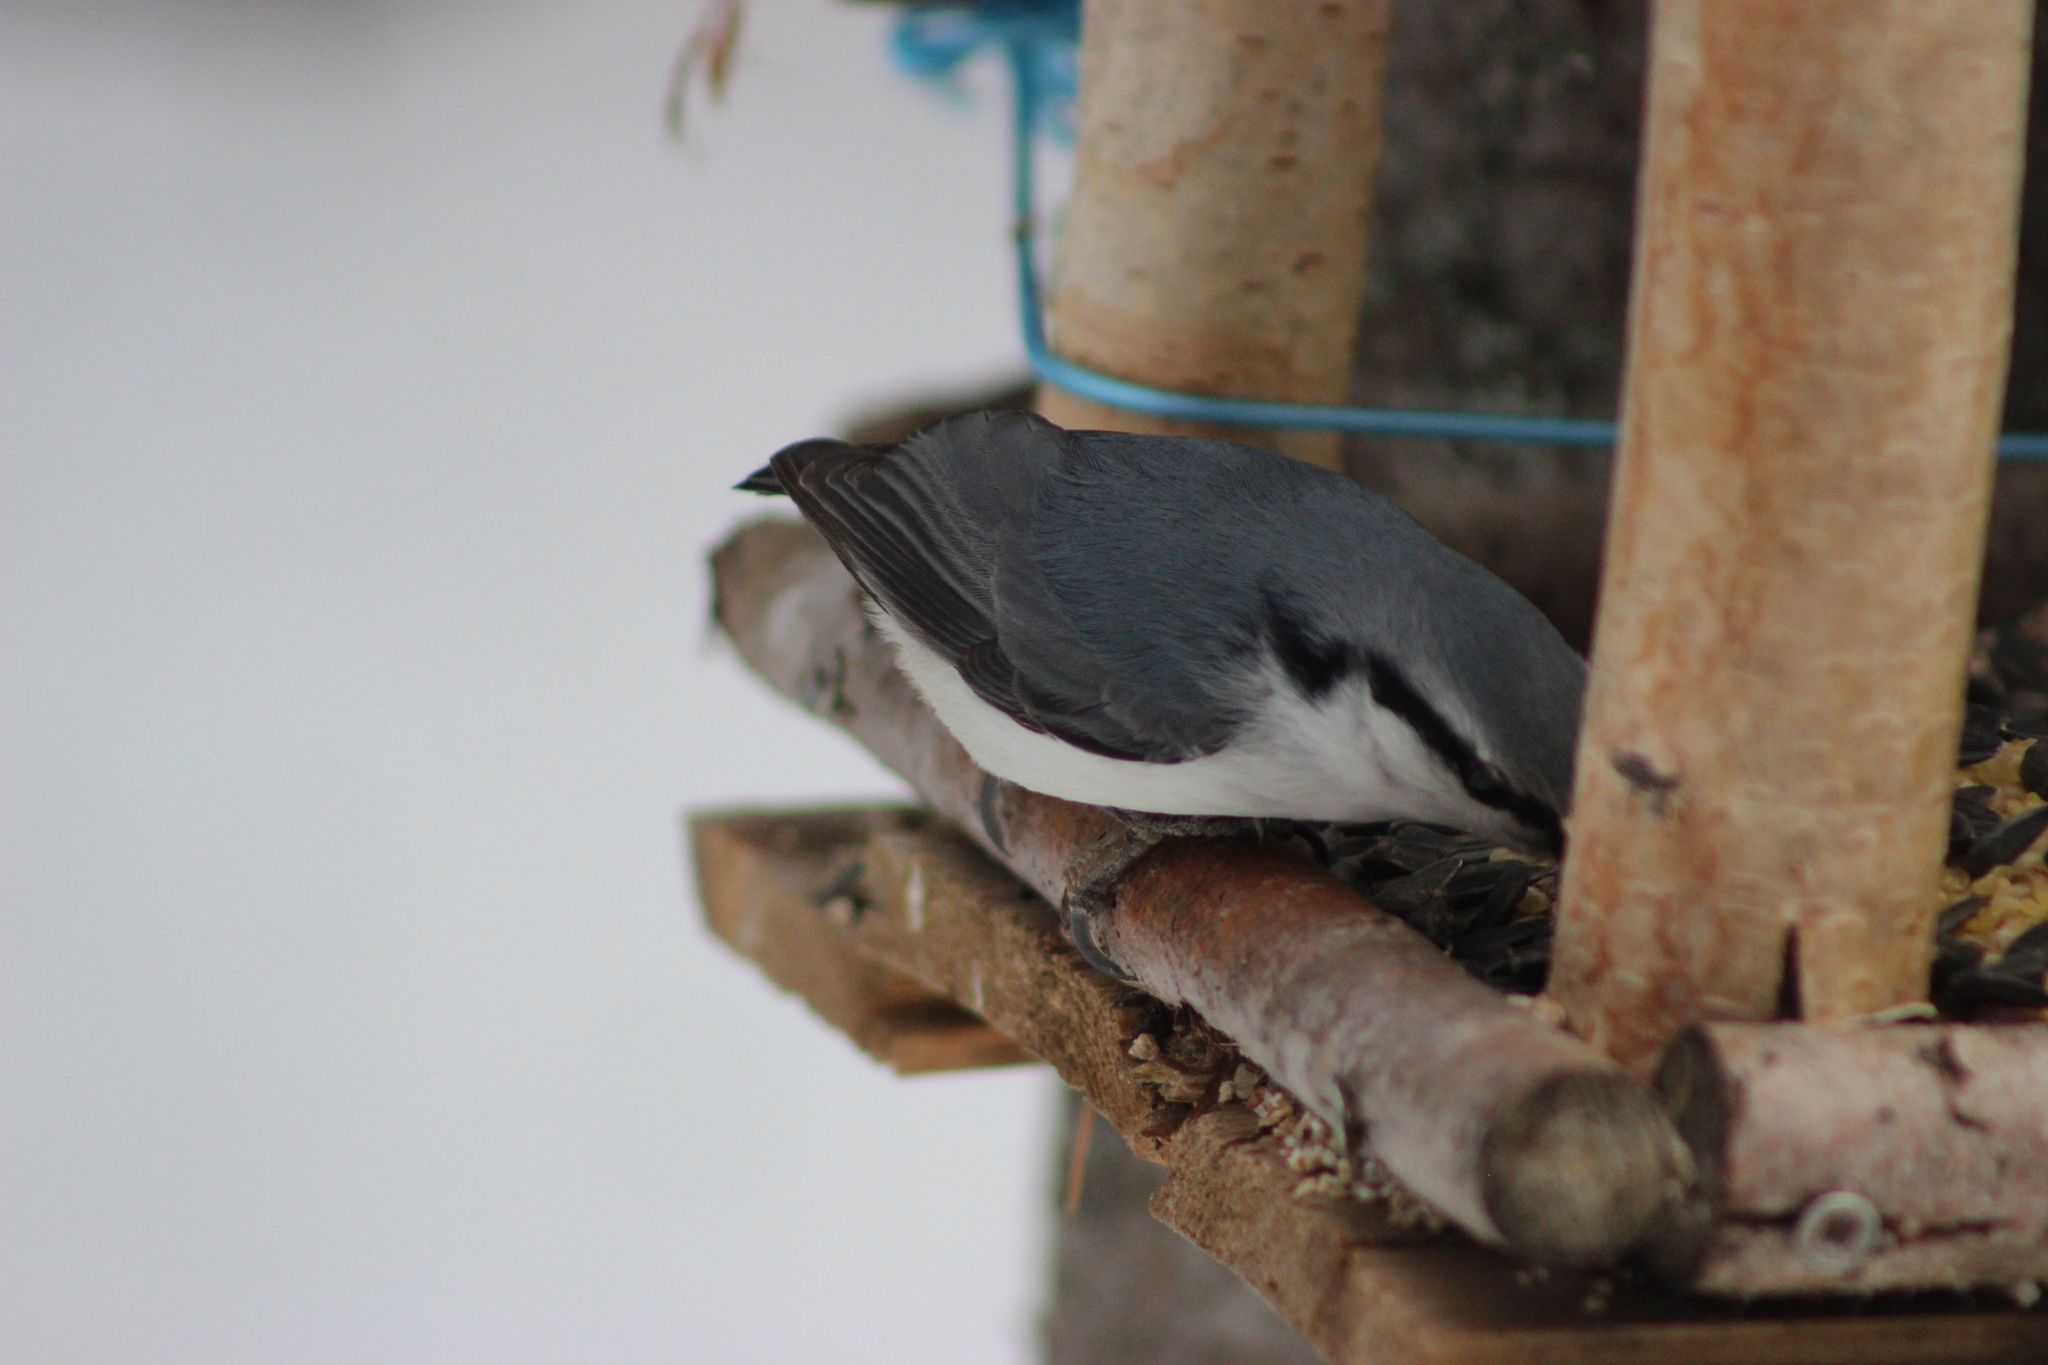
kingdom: Animalia
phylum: Chordata
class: Aves
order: Passeriformes
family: Sittidae
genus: Sitta
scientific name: Sitta europaea
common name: Eurasian nuthatch
